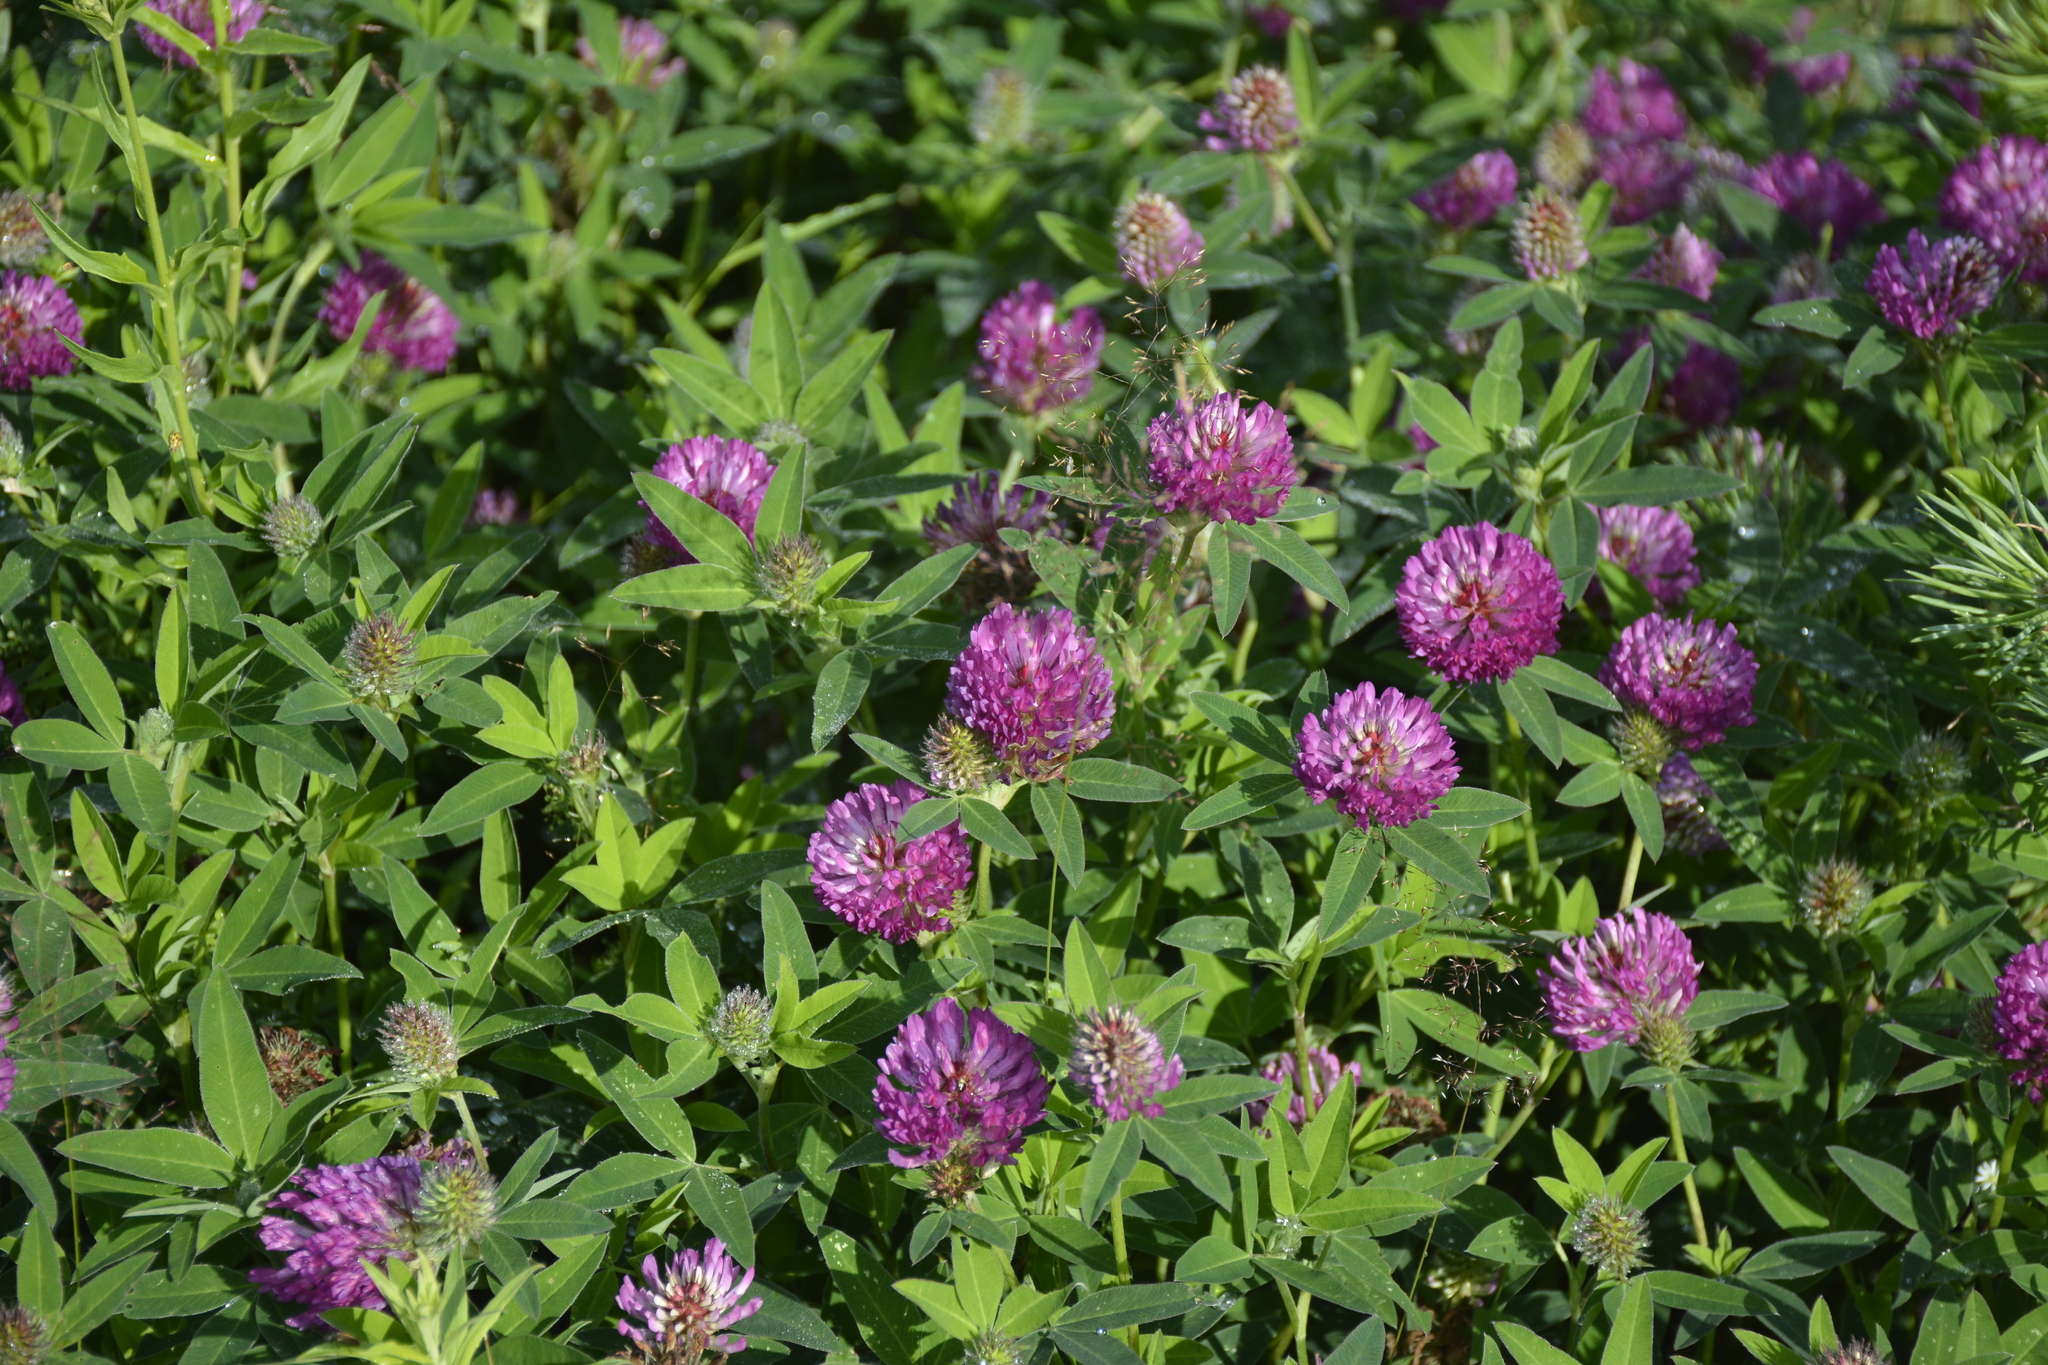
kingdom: Plantae
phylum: Tracheophyta
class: Magnoliopsida
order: Fabales
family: Fabaceae
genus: Trifolium
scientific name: Trifolium medium
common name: Zigzag clover
